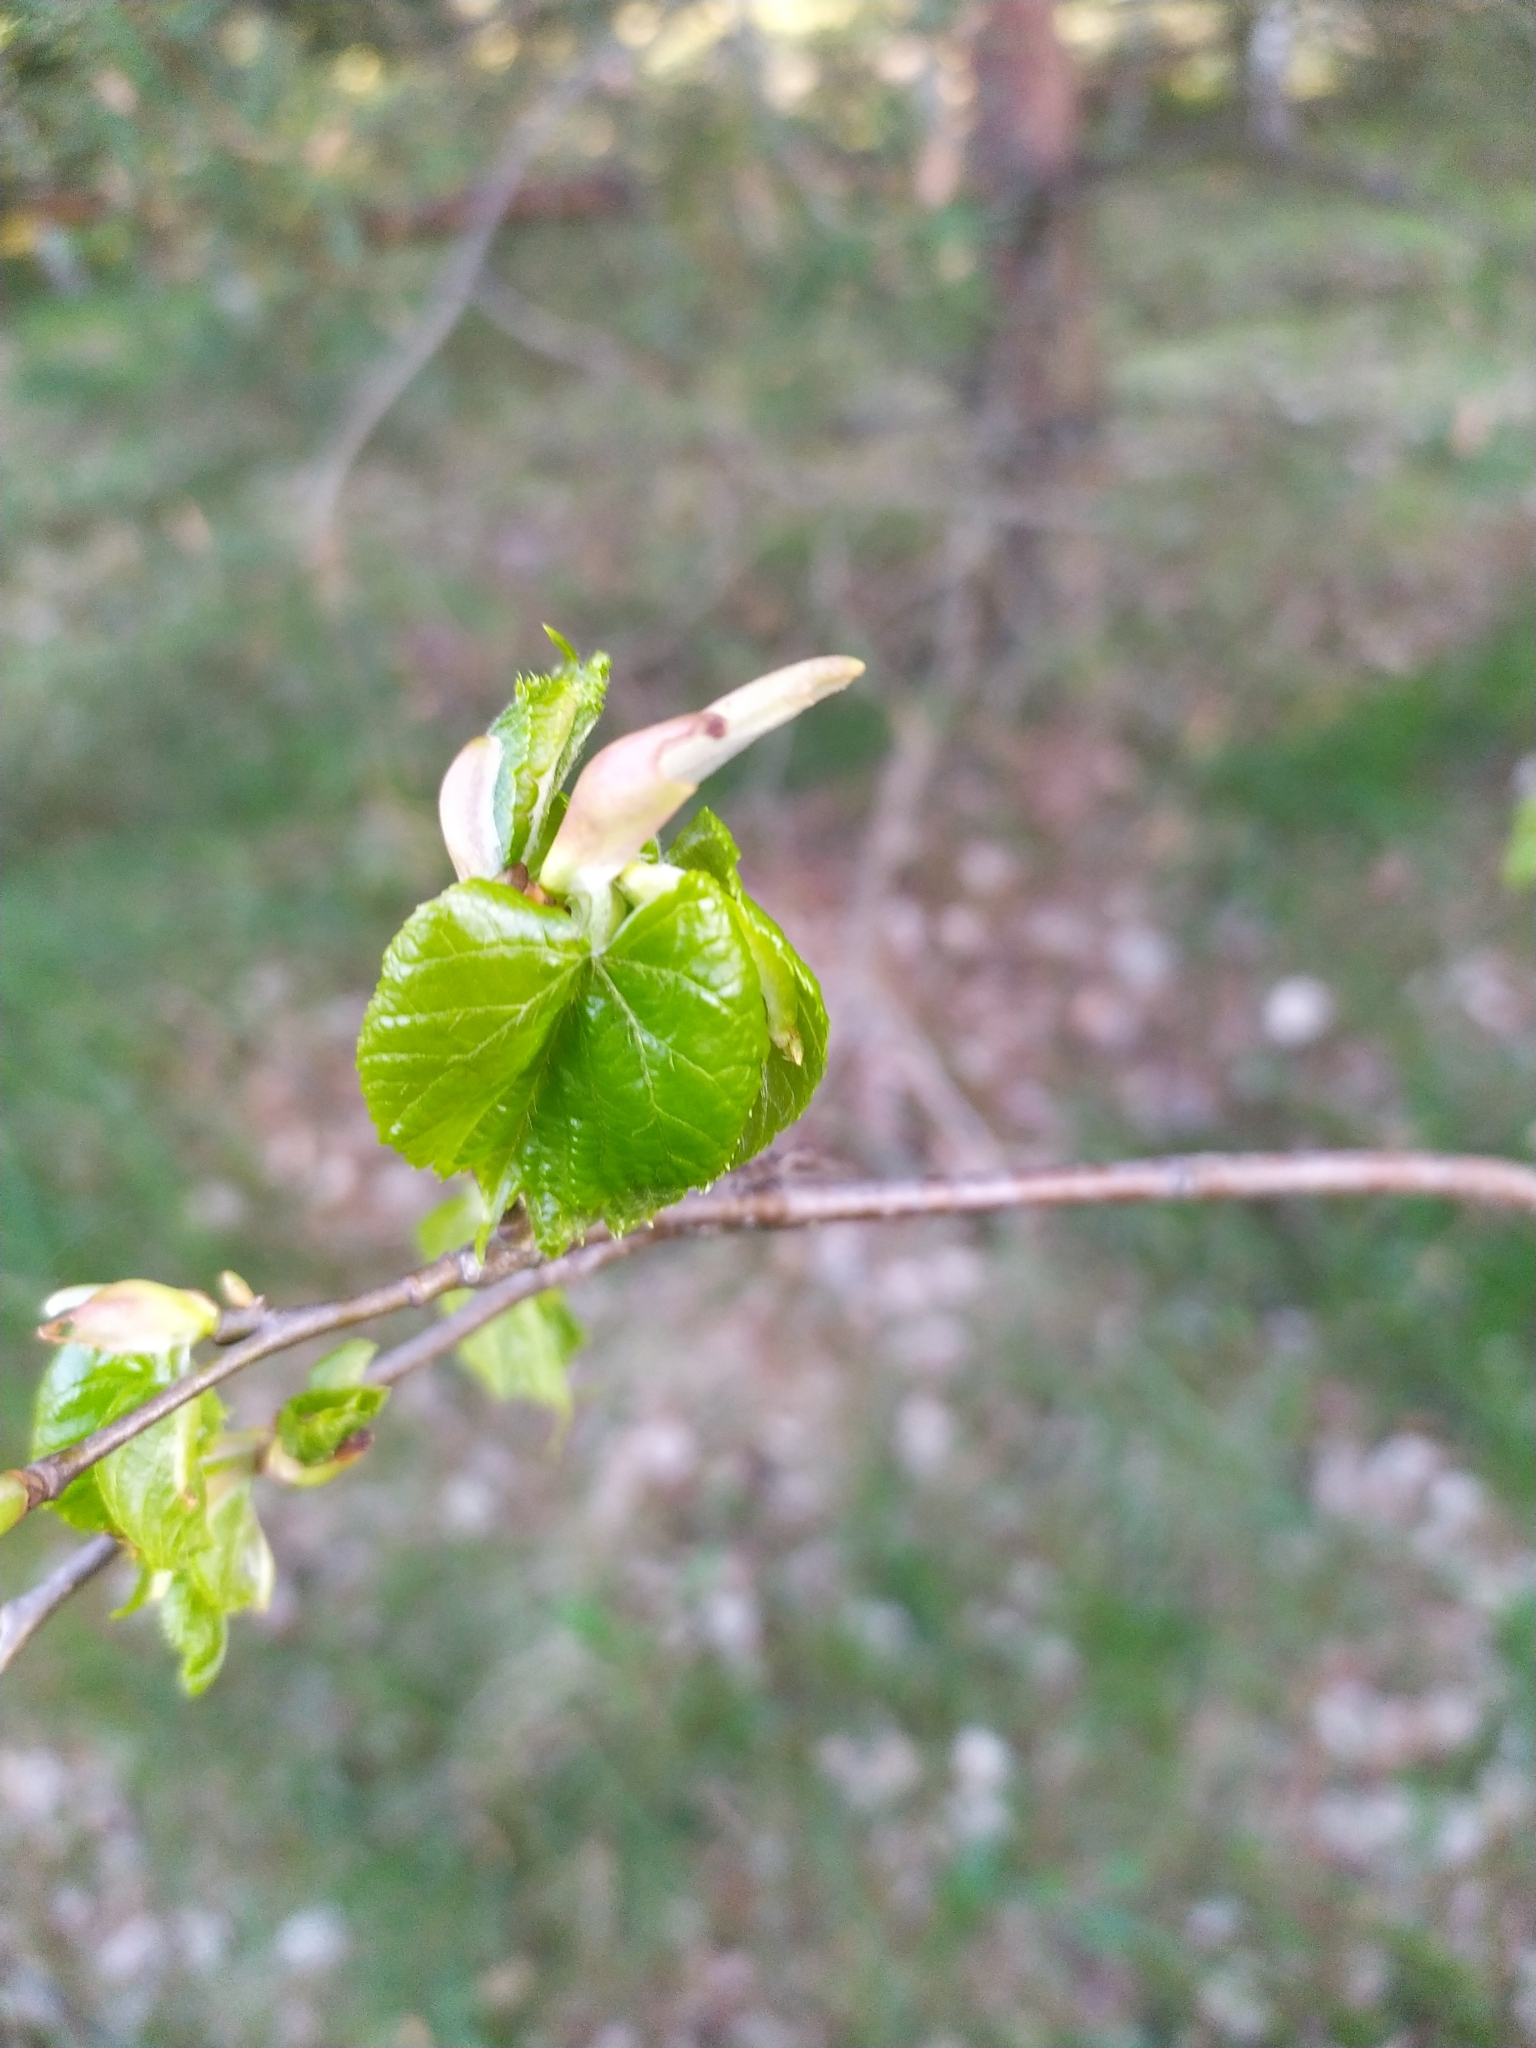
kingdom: Plantae
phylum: Tracheophyta
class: Magnoliopsida
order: Malvales
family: Malvaceae
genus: Tilia
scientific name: Tilia cordata
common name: Small-leaved lime
